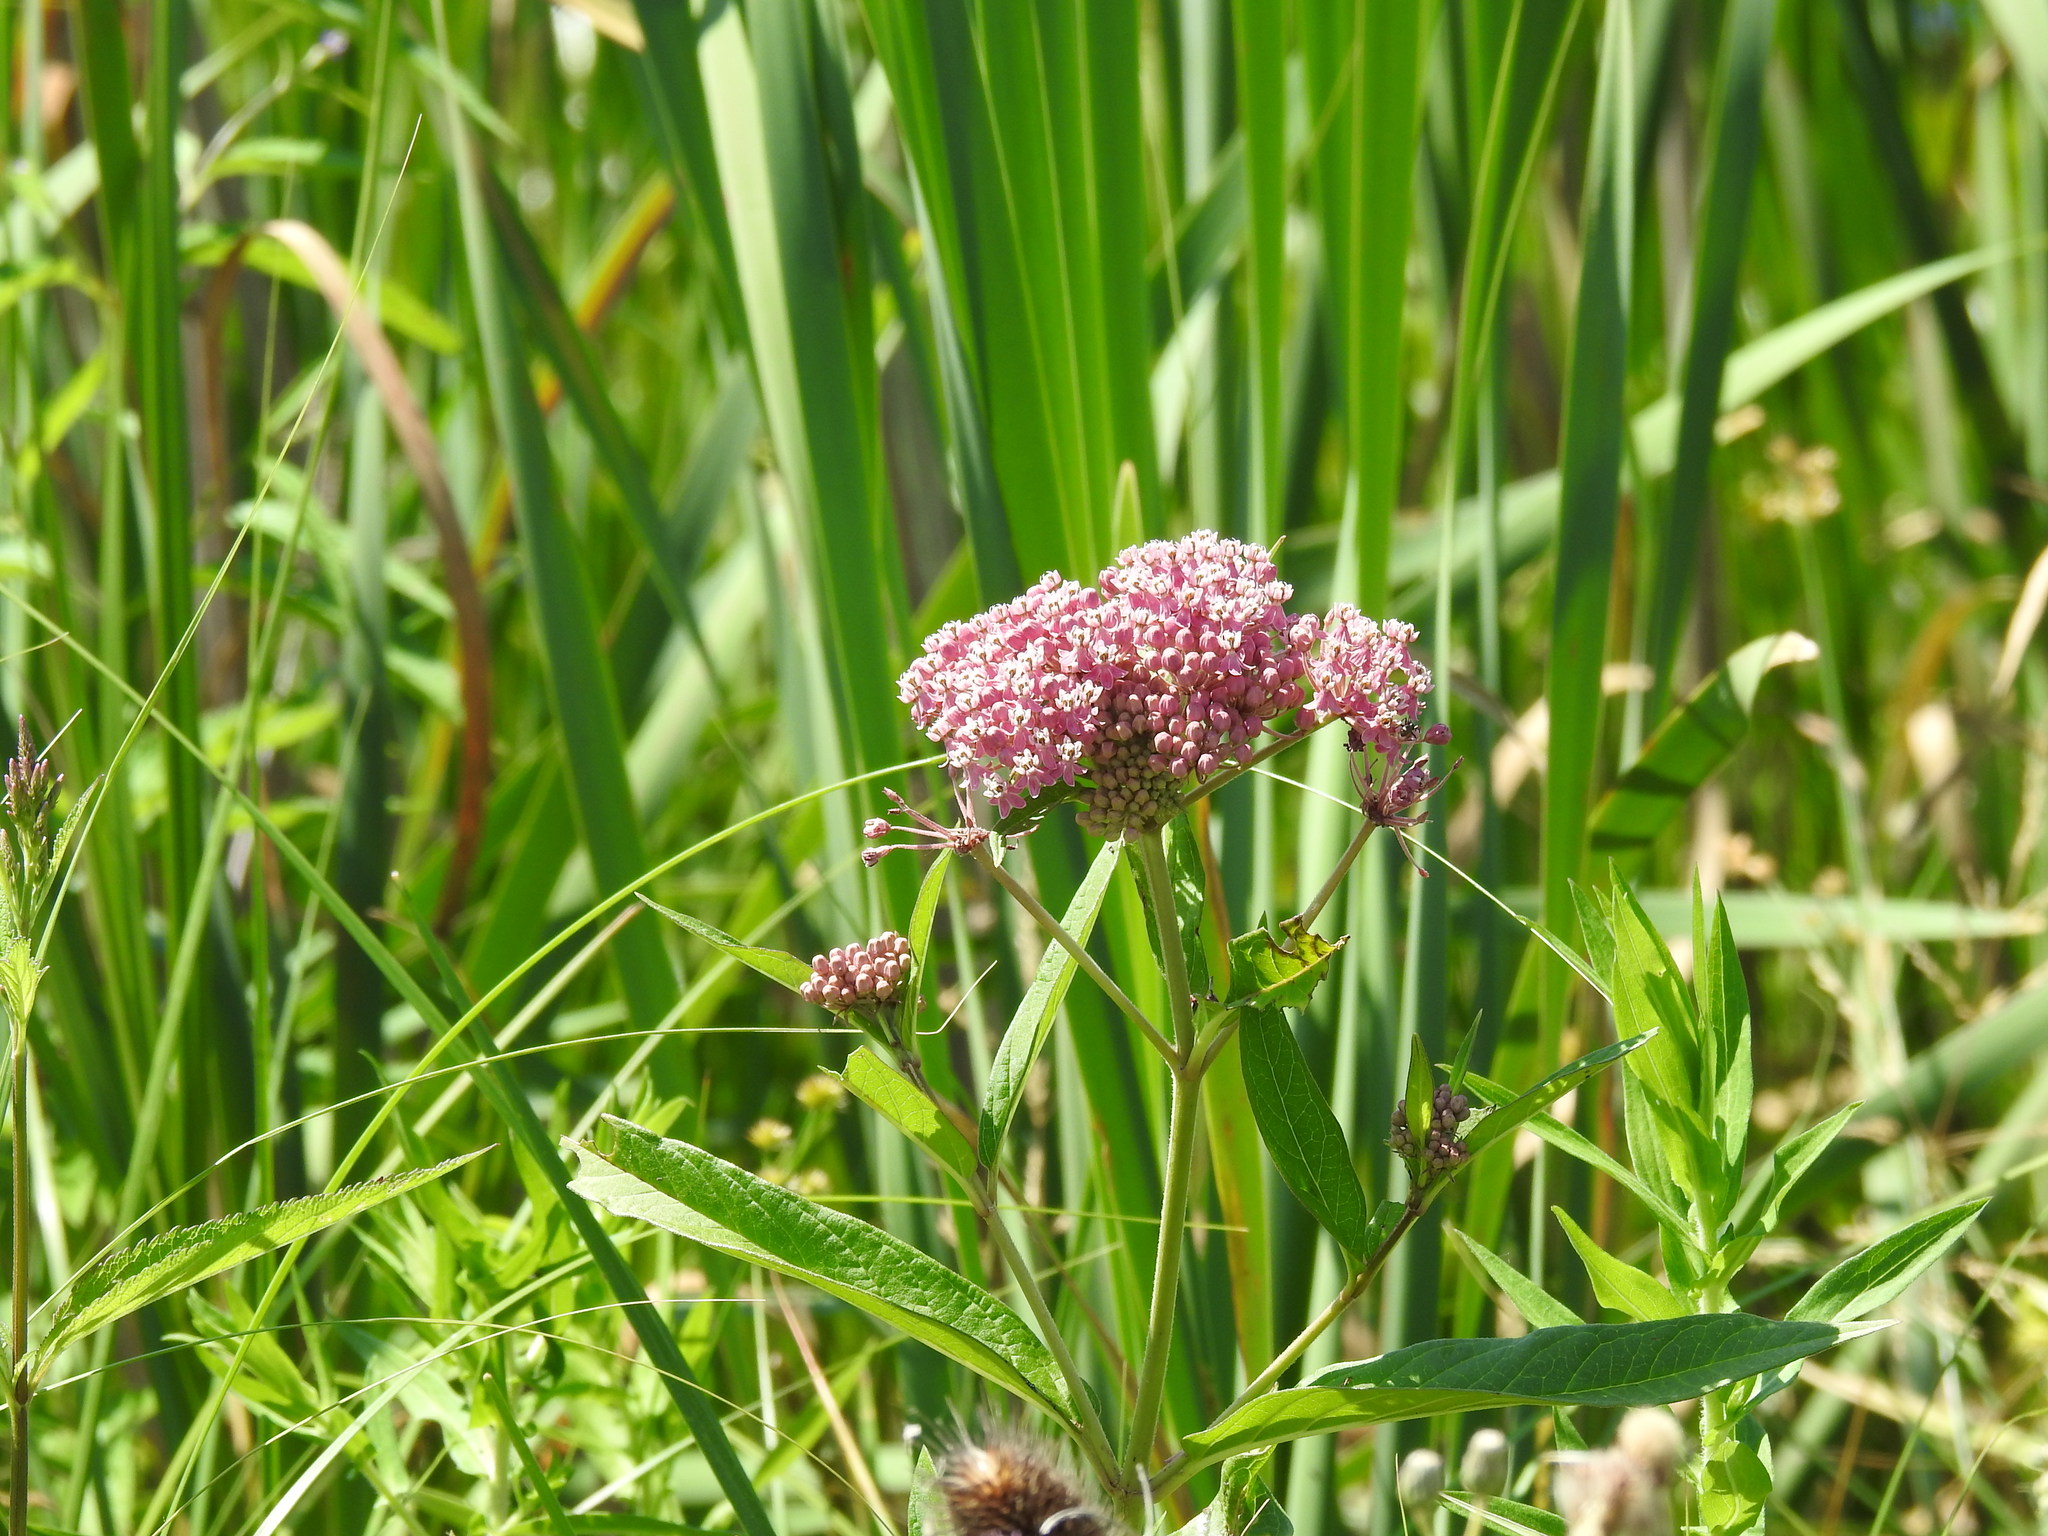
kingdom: Plantae
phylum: Tracheophyta
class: Magnoliopsida
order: Gentianales
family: Apocynaceae
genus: Asclepias
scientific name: Asclepias incarnata
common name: Swamp milkweed
